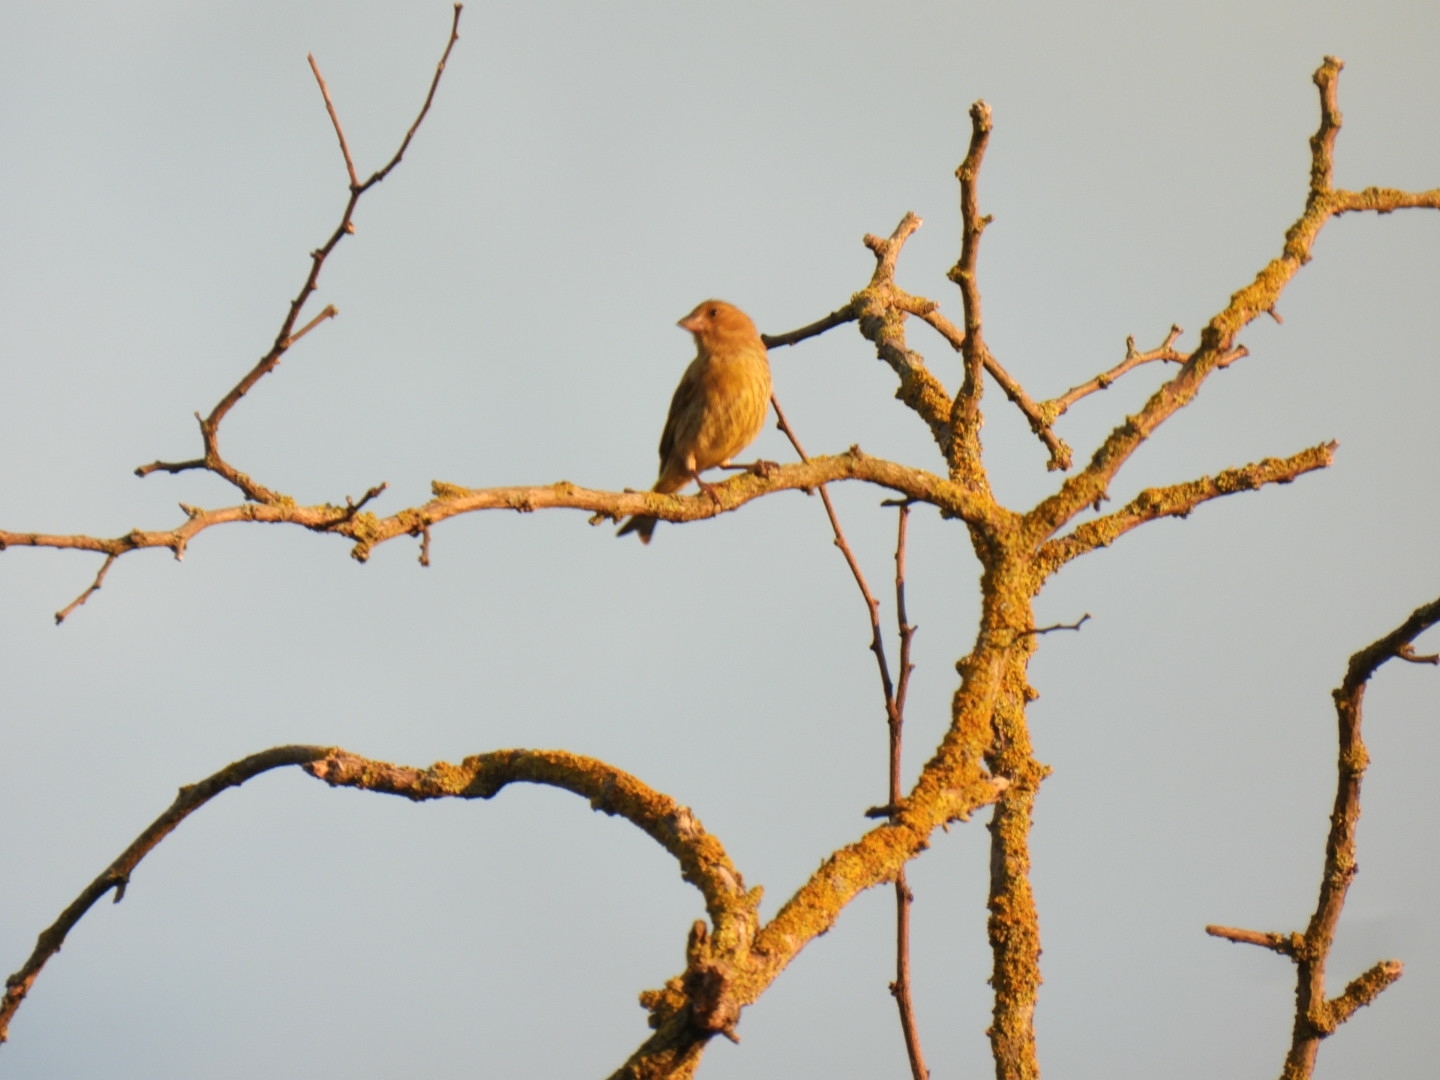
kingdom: Plantae
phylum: Tracheophyta
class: Liliopsida
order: Poales
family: Poaceae
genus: Chloris
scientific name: Chloris chloris
